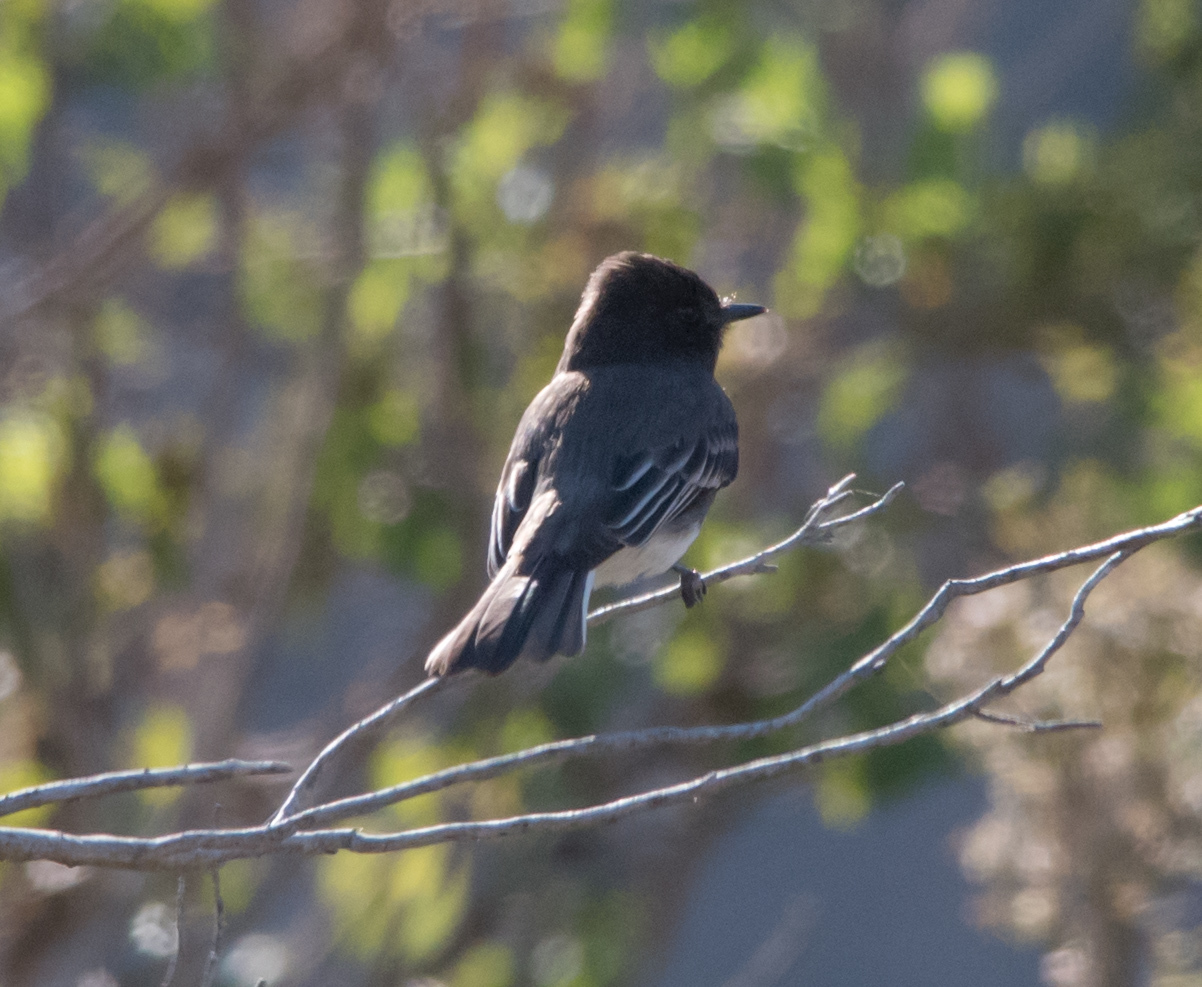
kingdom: Animalia
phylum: Chordata
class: Aves
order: Passeriformes
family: Tyrannidae
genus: Sayornis
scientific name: Sayornis nigricans
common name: Black phoebe
